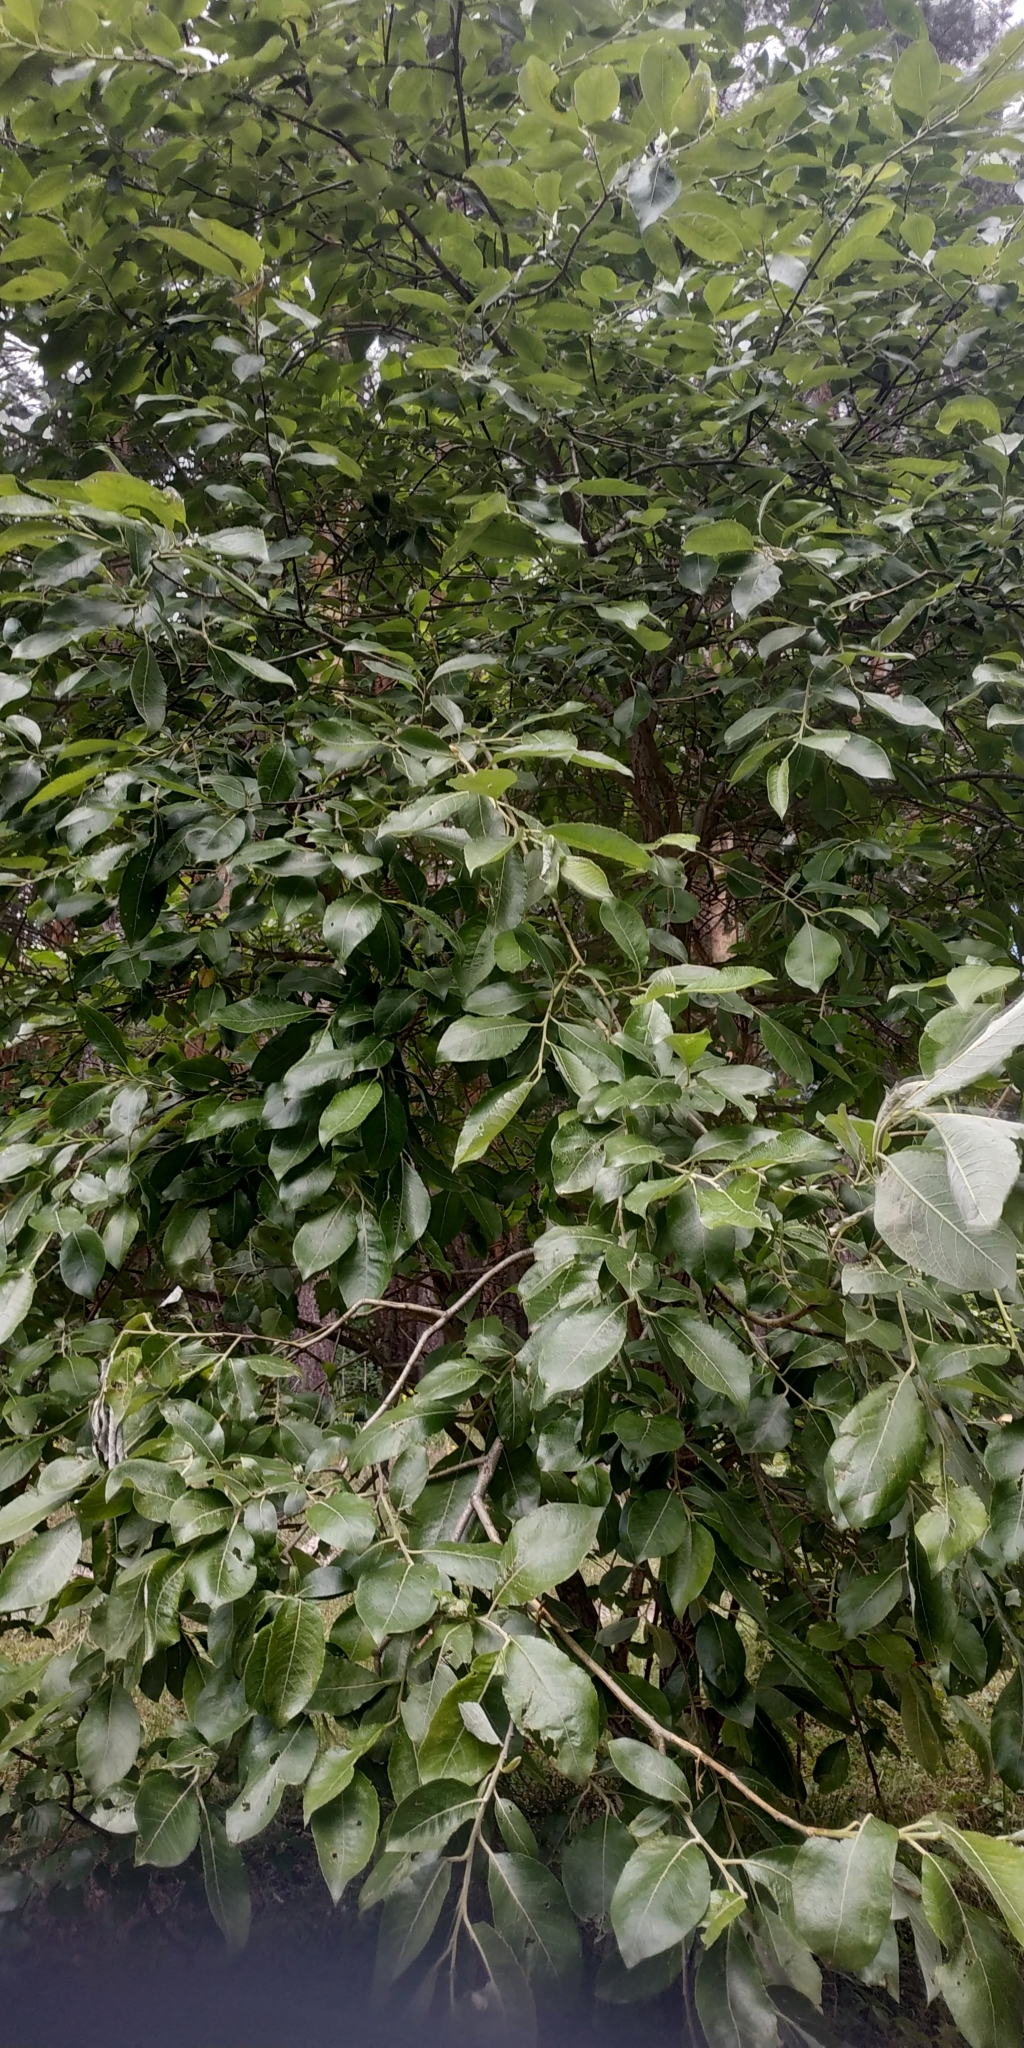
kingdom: Plantae
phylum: Tracheophyta
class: Magnoliopsida
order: Malpighiales
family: Salicaceae
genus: Salix
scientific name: Salix caprea
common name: Goat willow
